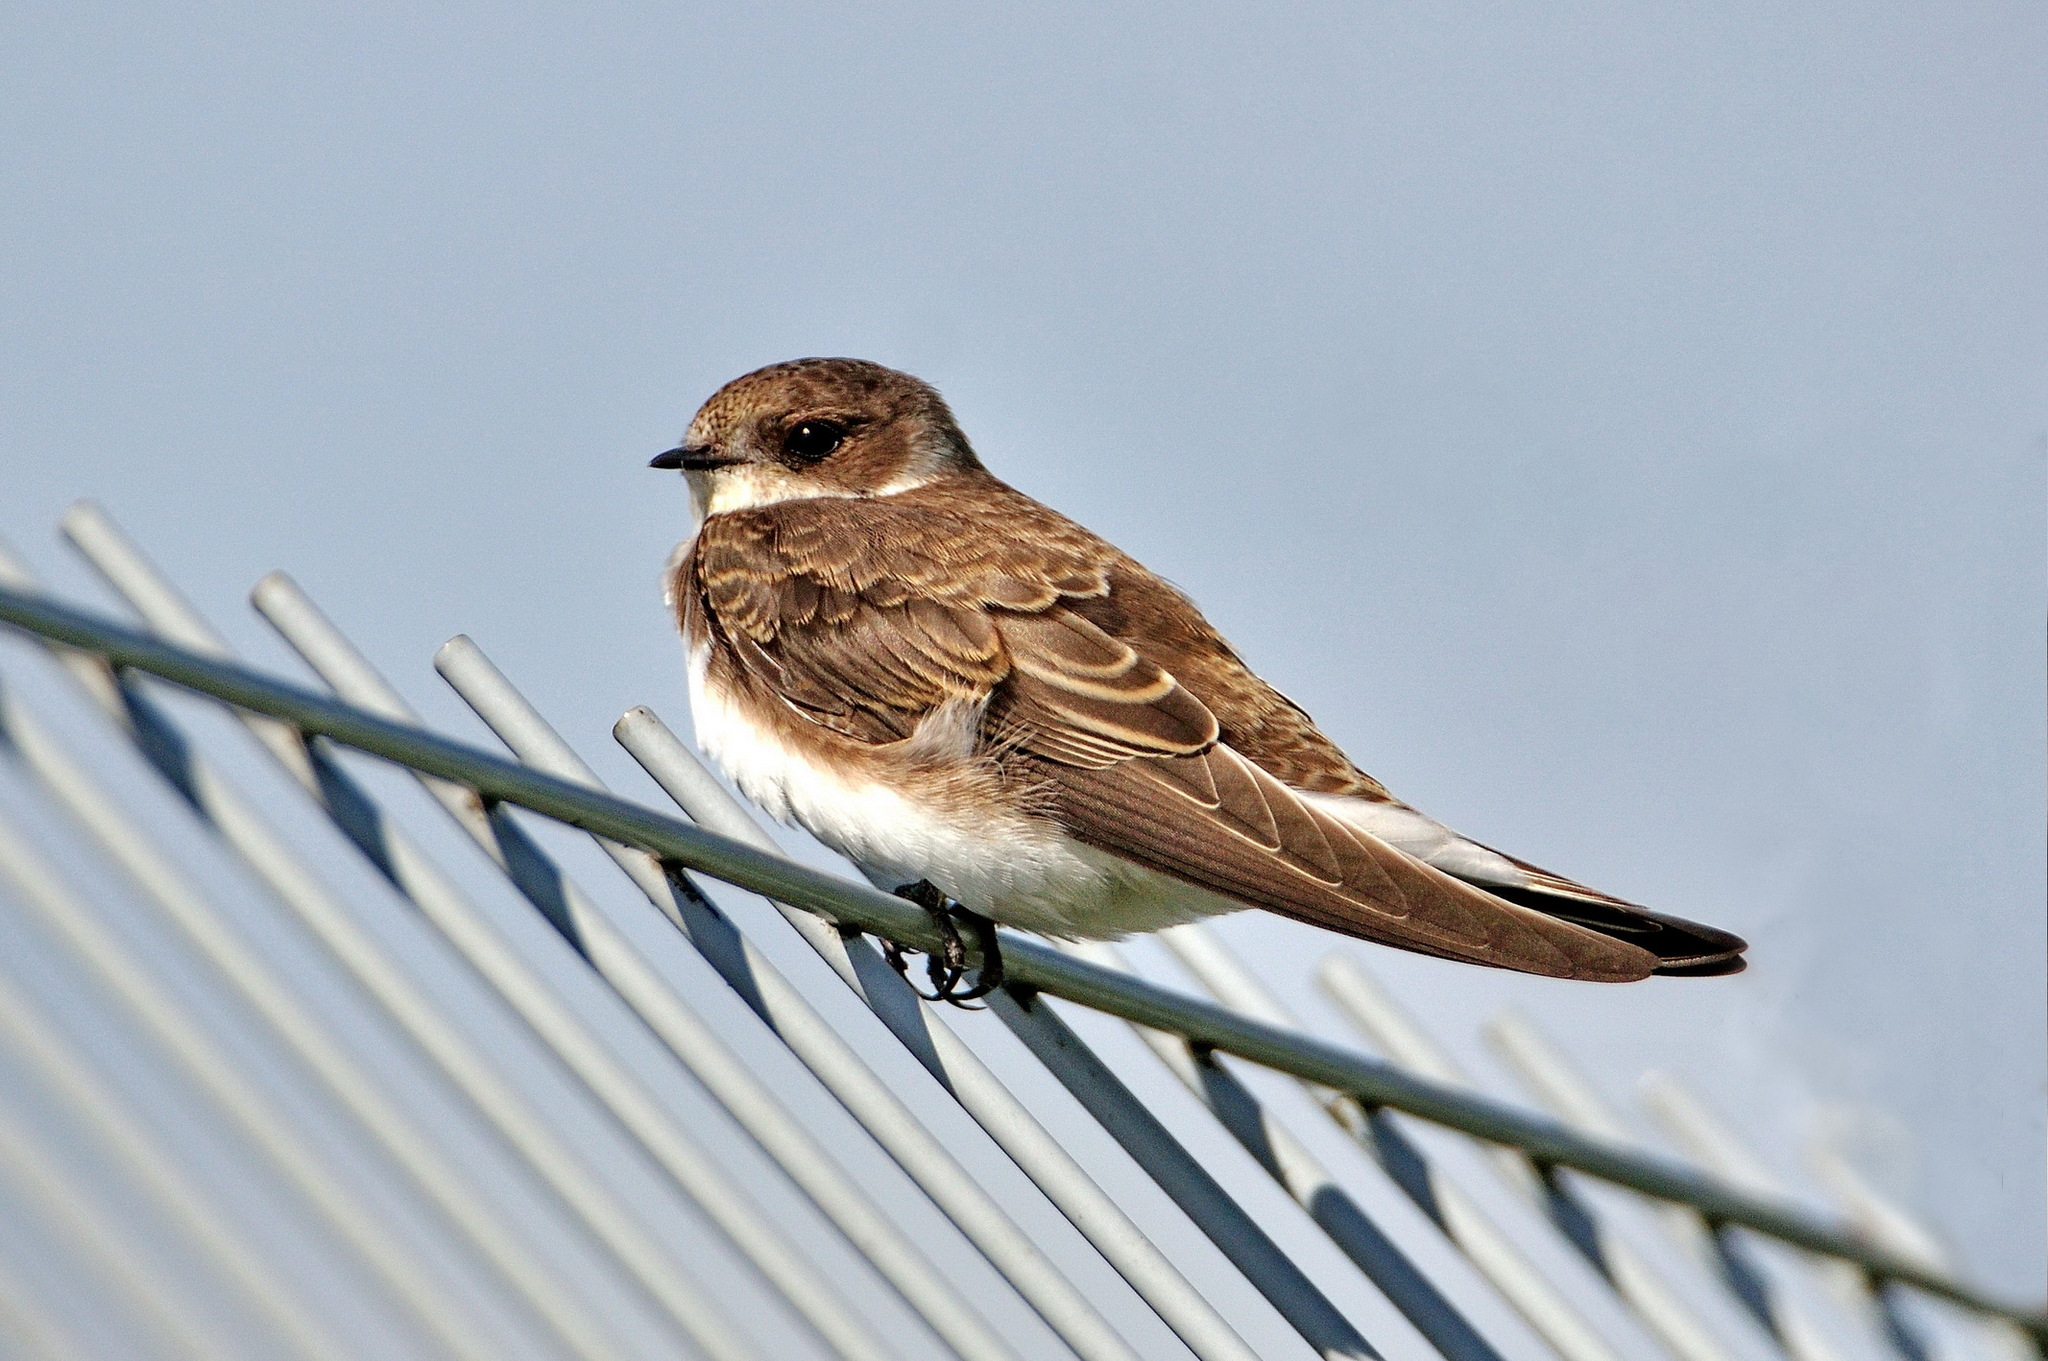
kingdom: Animalia
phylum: Chordata
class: Aves
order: Passeriformes
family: Hirundinidae
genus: Riparia
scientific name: Riparia riparia
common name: Sand martin
